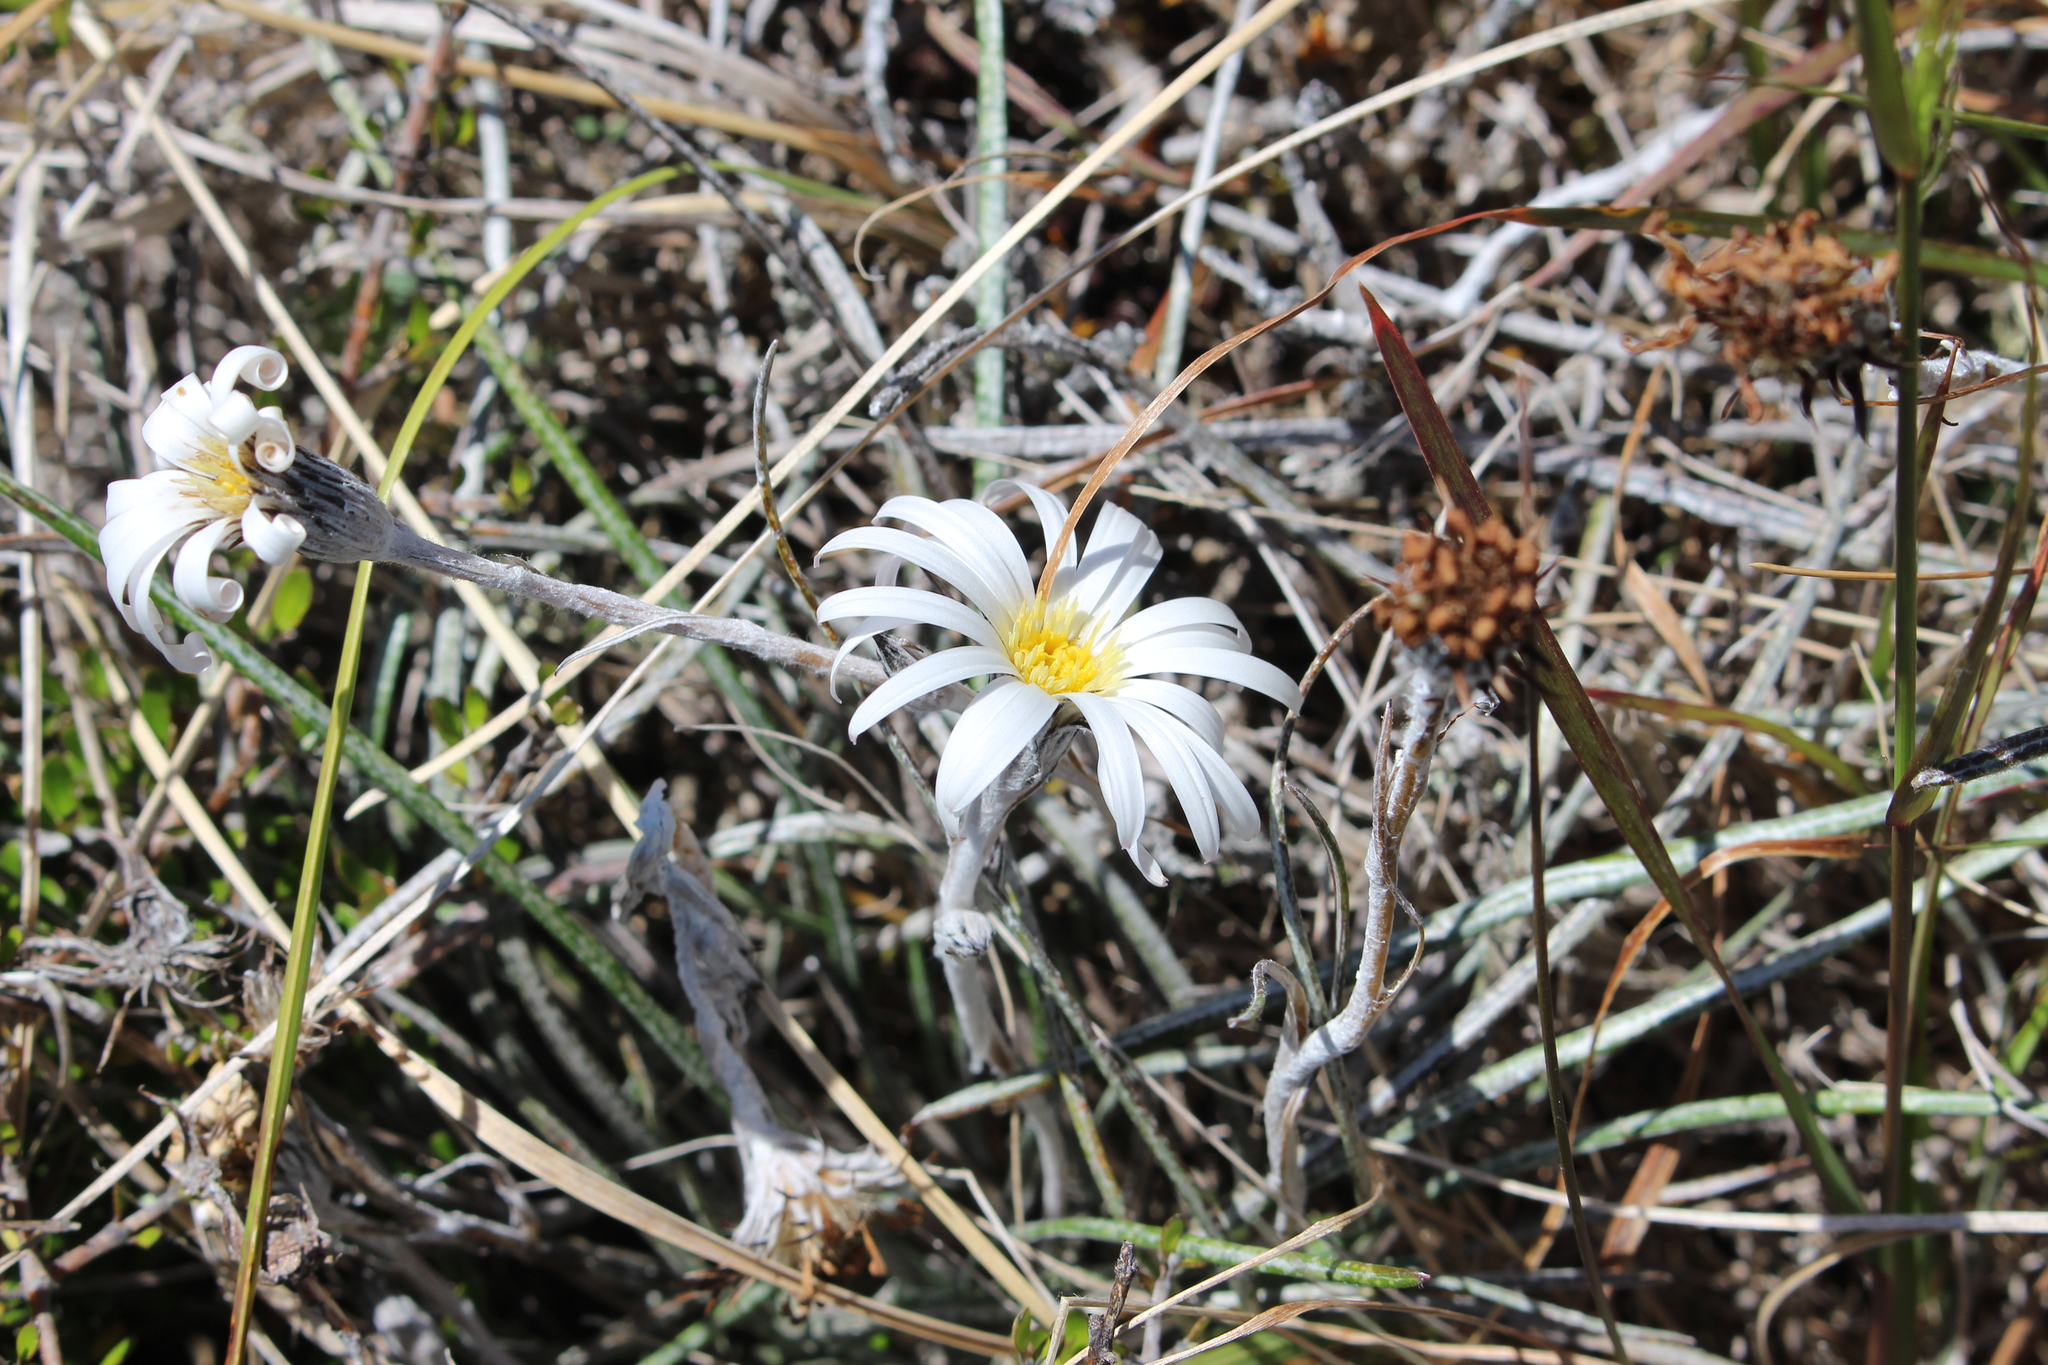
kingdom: Plantae
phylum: Tracheophyta
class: Magnoliopsida
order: Asterales
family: Asteraceae
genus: Celmisia
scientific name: Celmisia gracilenta
